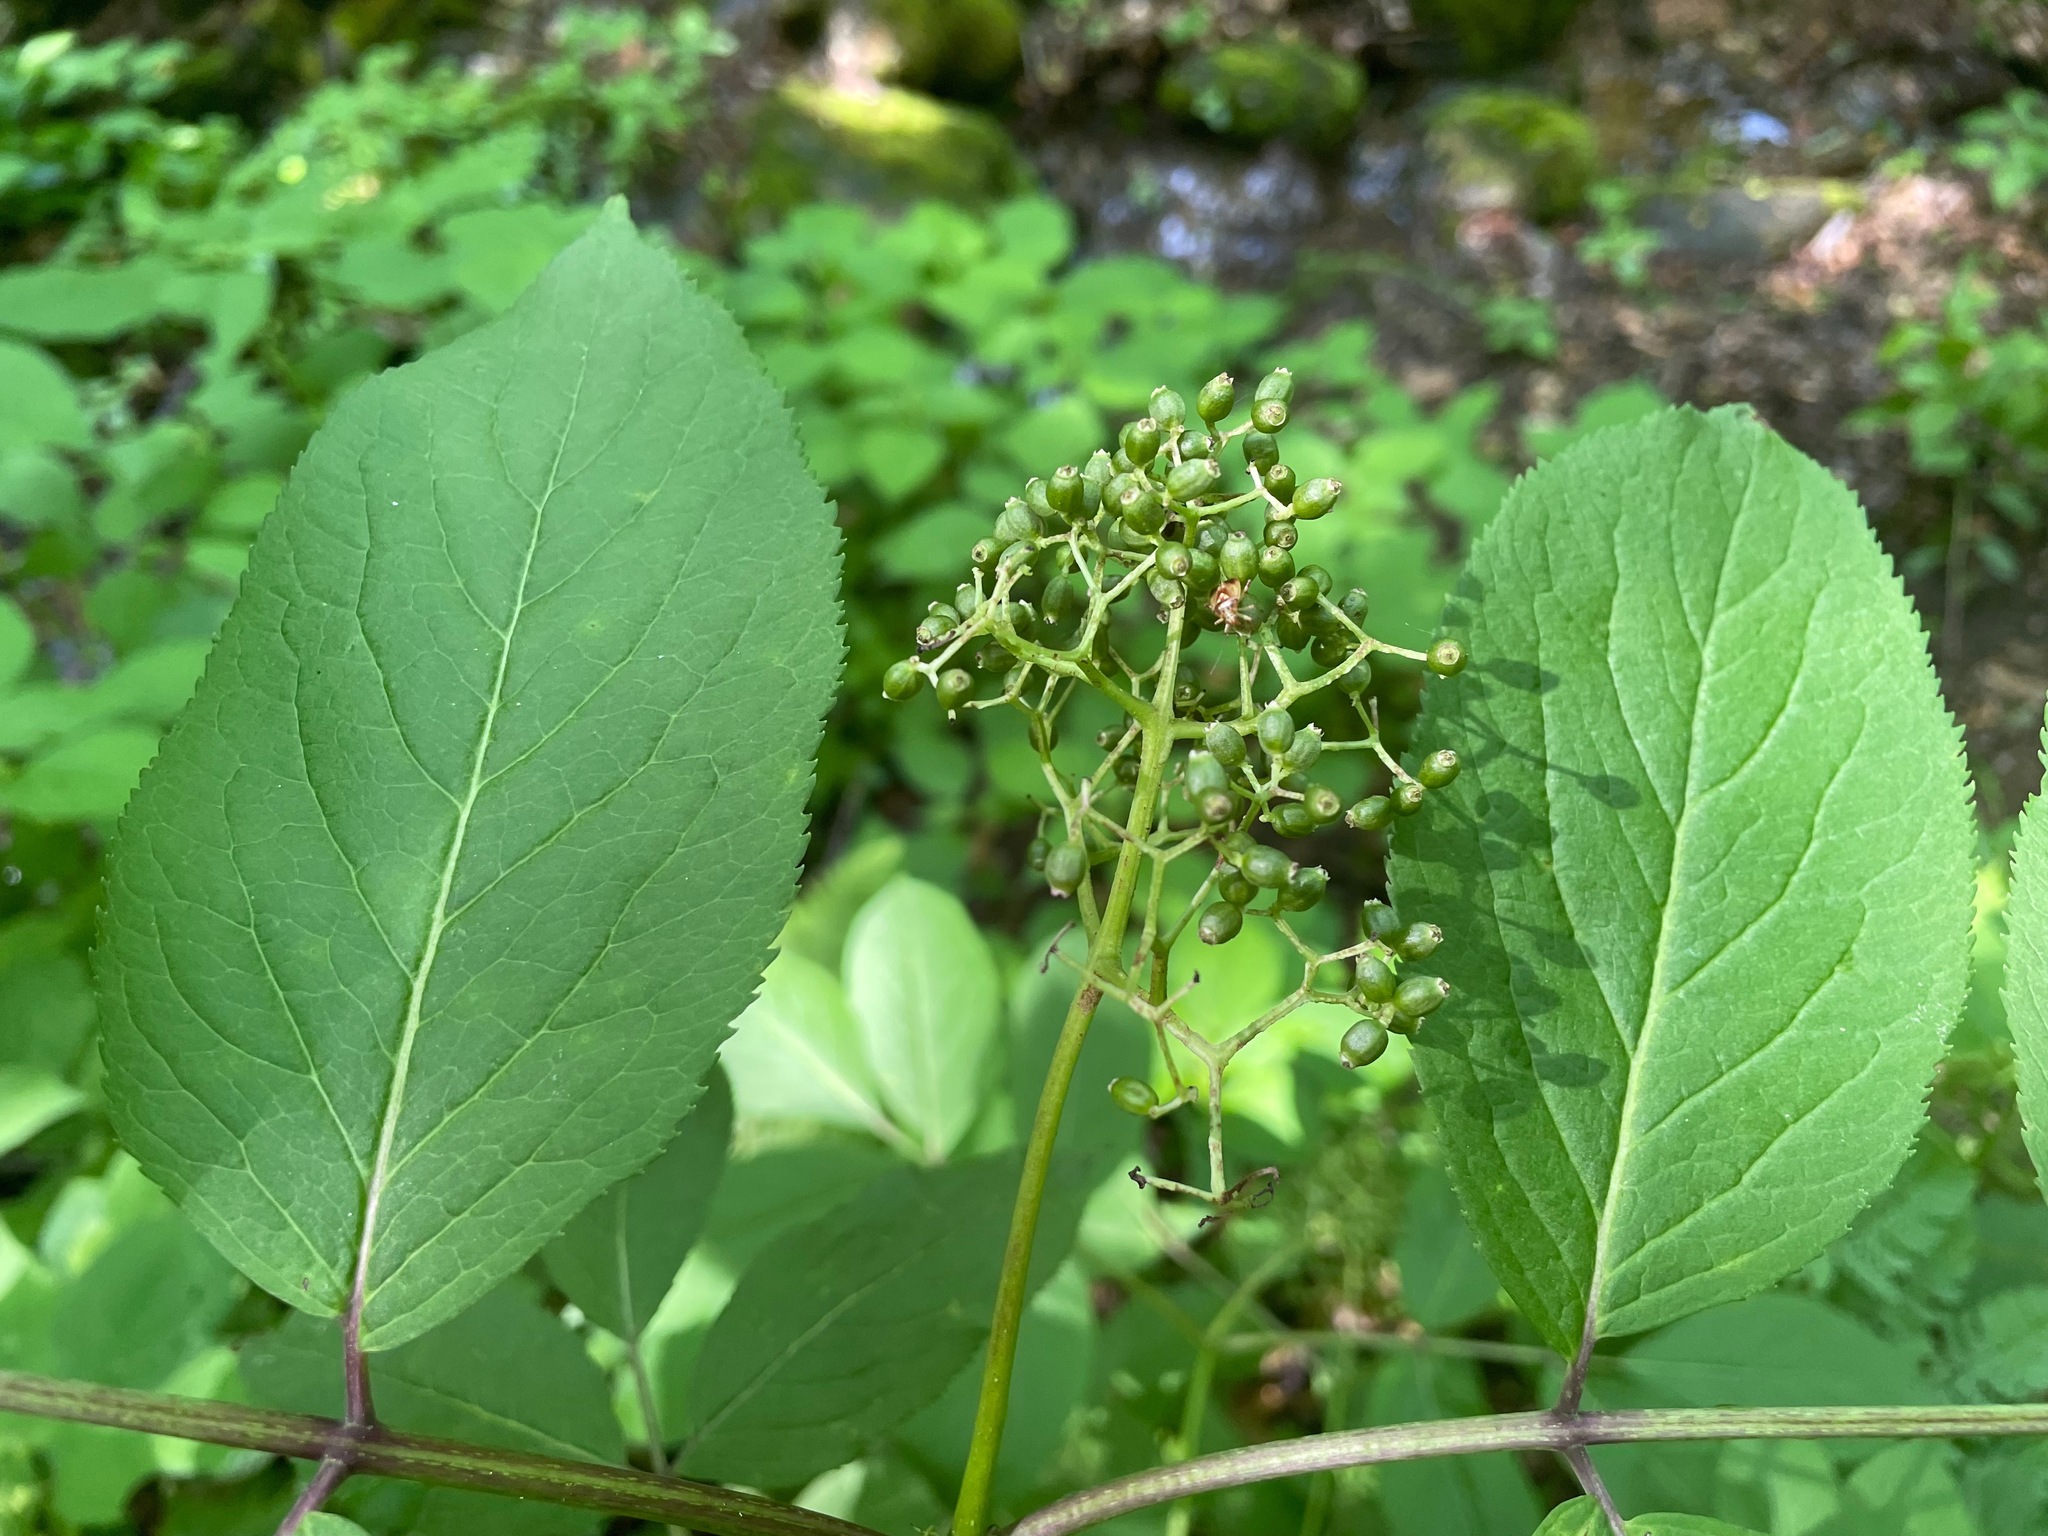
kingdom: Plantae
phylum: Tracheophyta
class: Magnoliopsida
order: Dipsacales
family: Viburnaceae
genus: Sambucus
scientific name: Sambucus racemosa
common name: Red-berried elder
